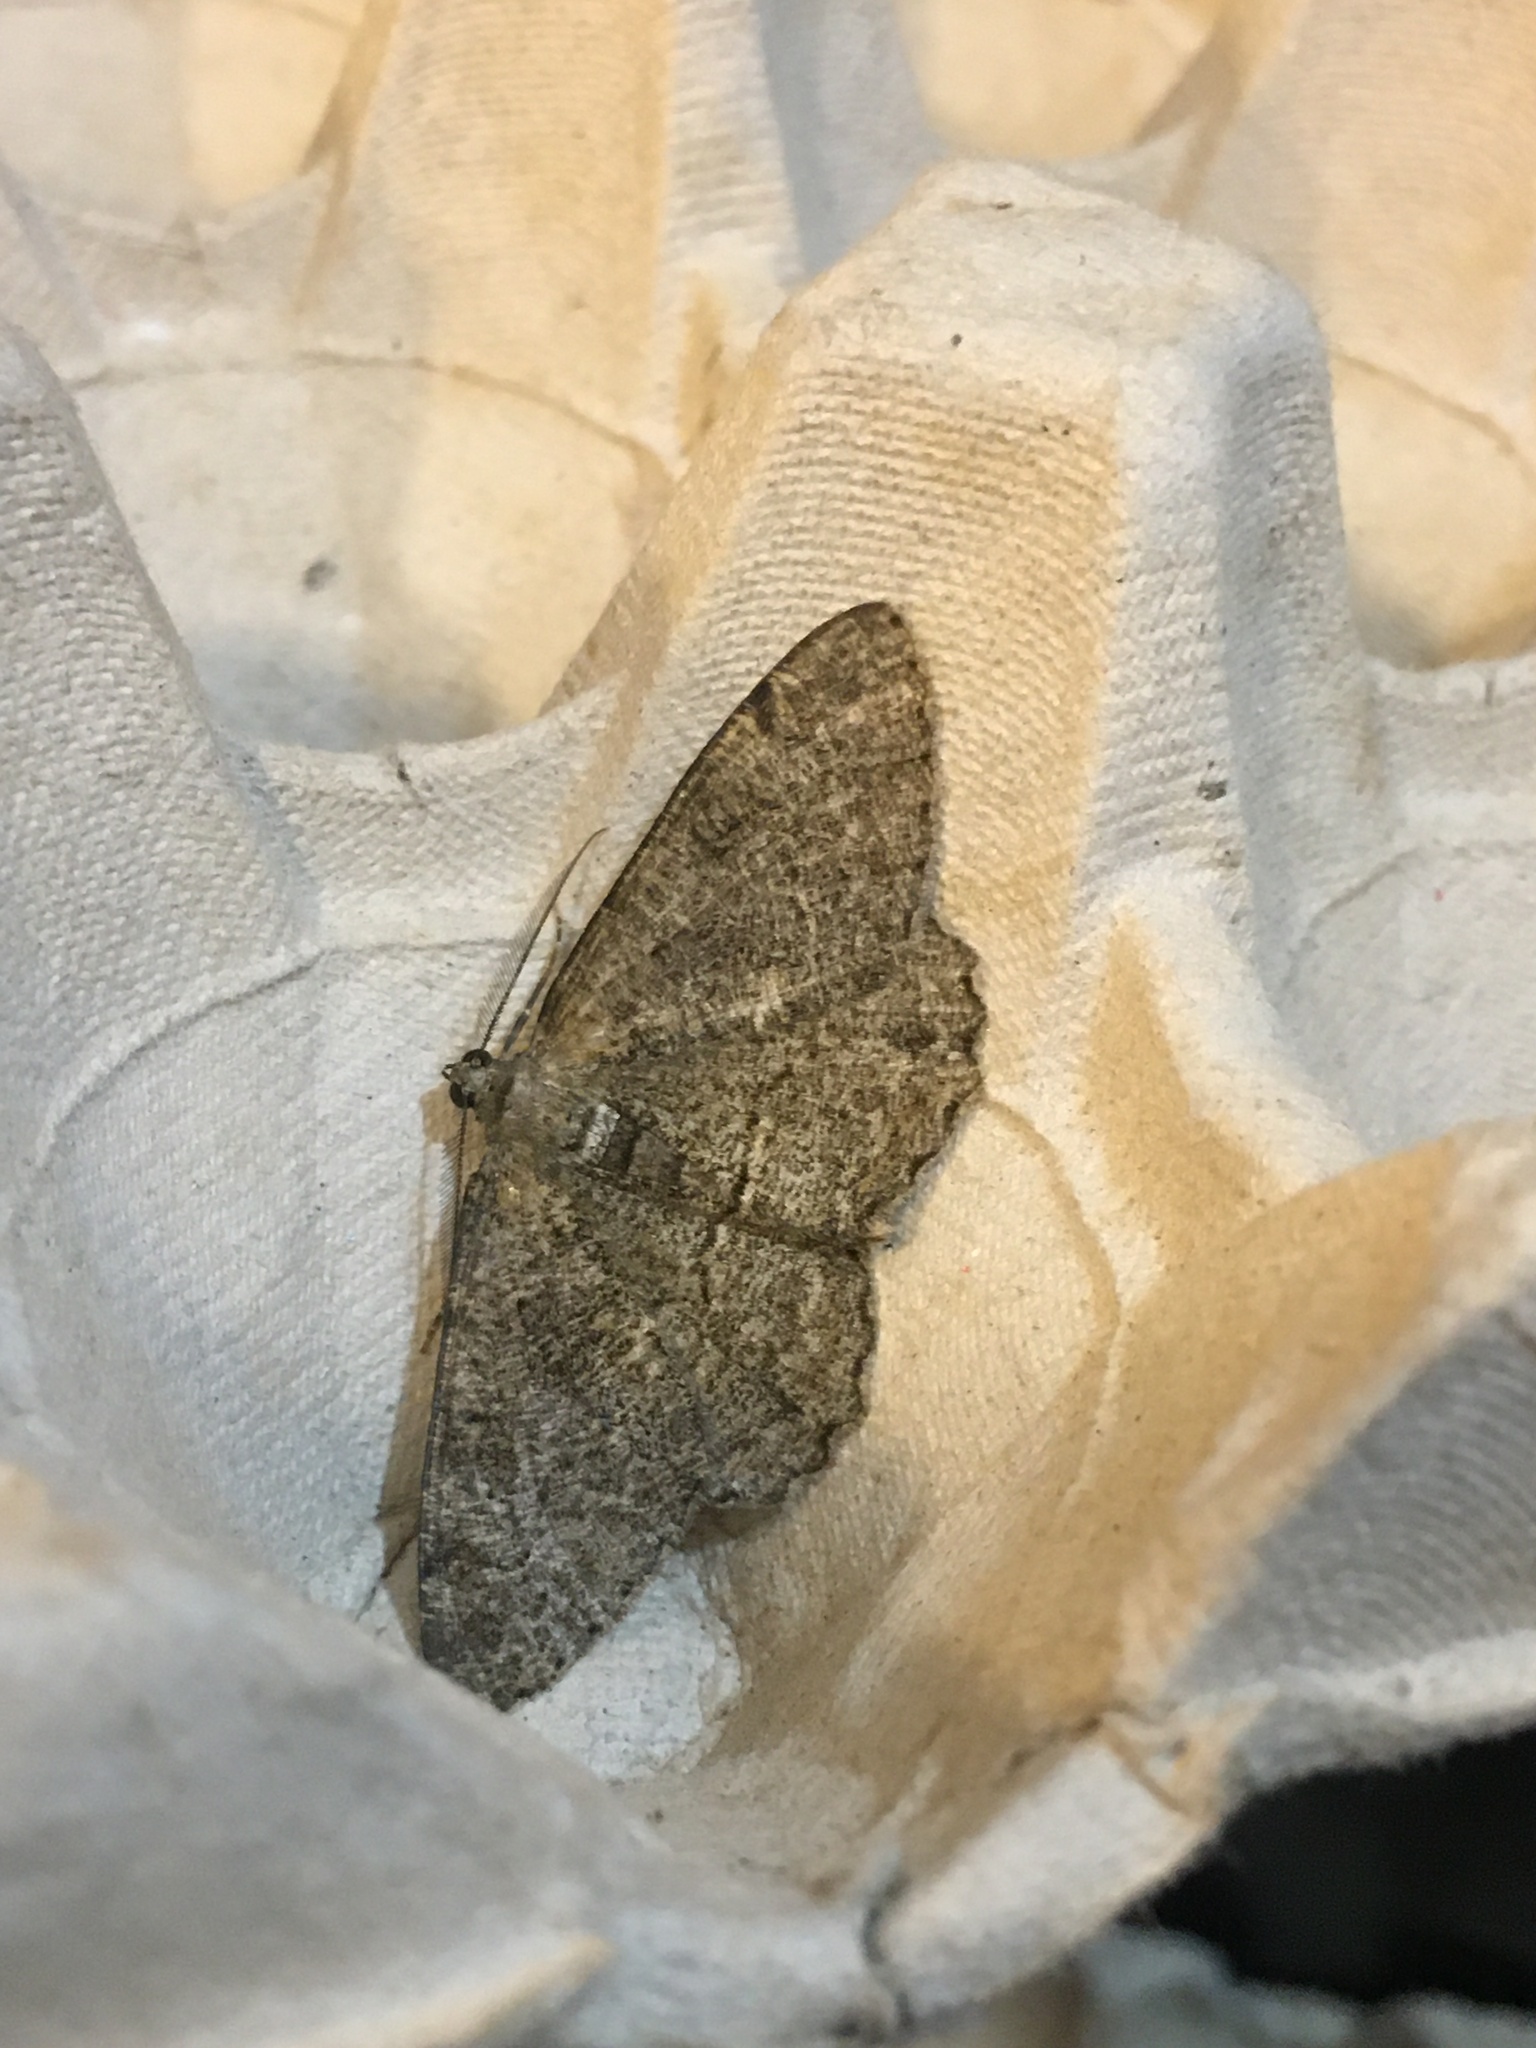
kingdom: Animalia
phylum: Arthropoda
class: Insecta
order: Lepidoptera
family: Geometridae
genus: Peribatodes
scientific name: Peribatodes rhomboidaria
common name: Willow beauty
